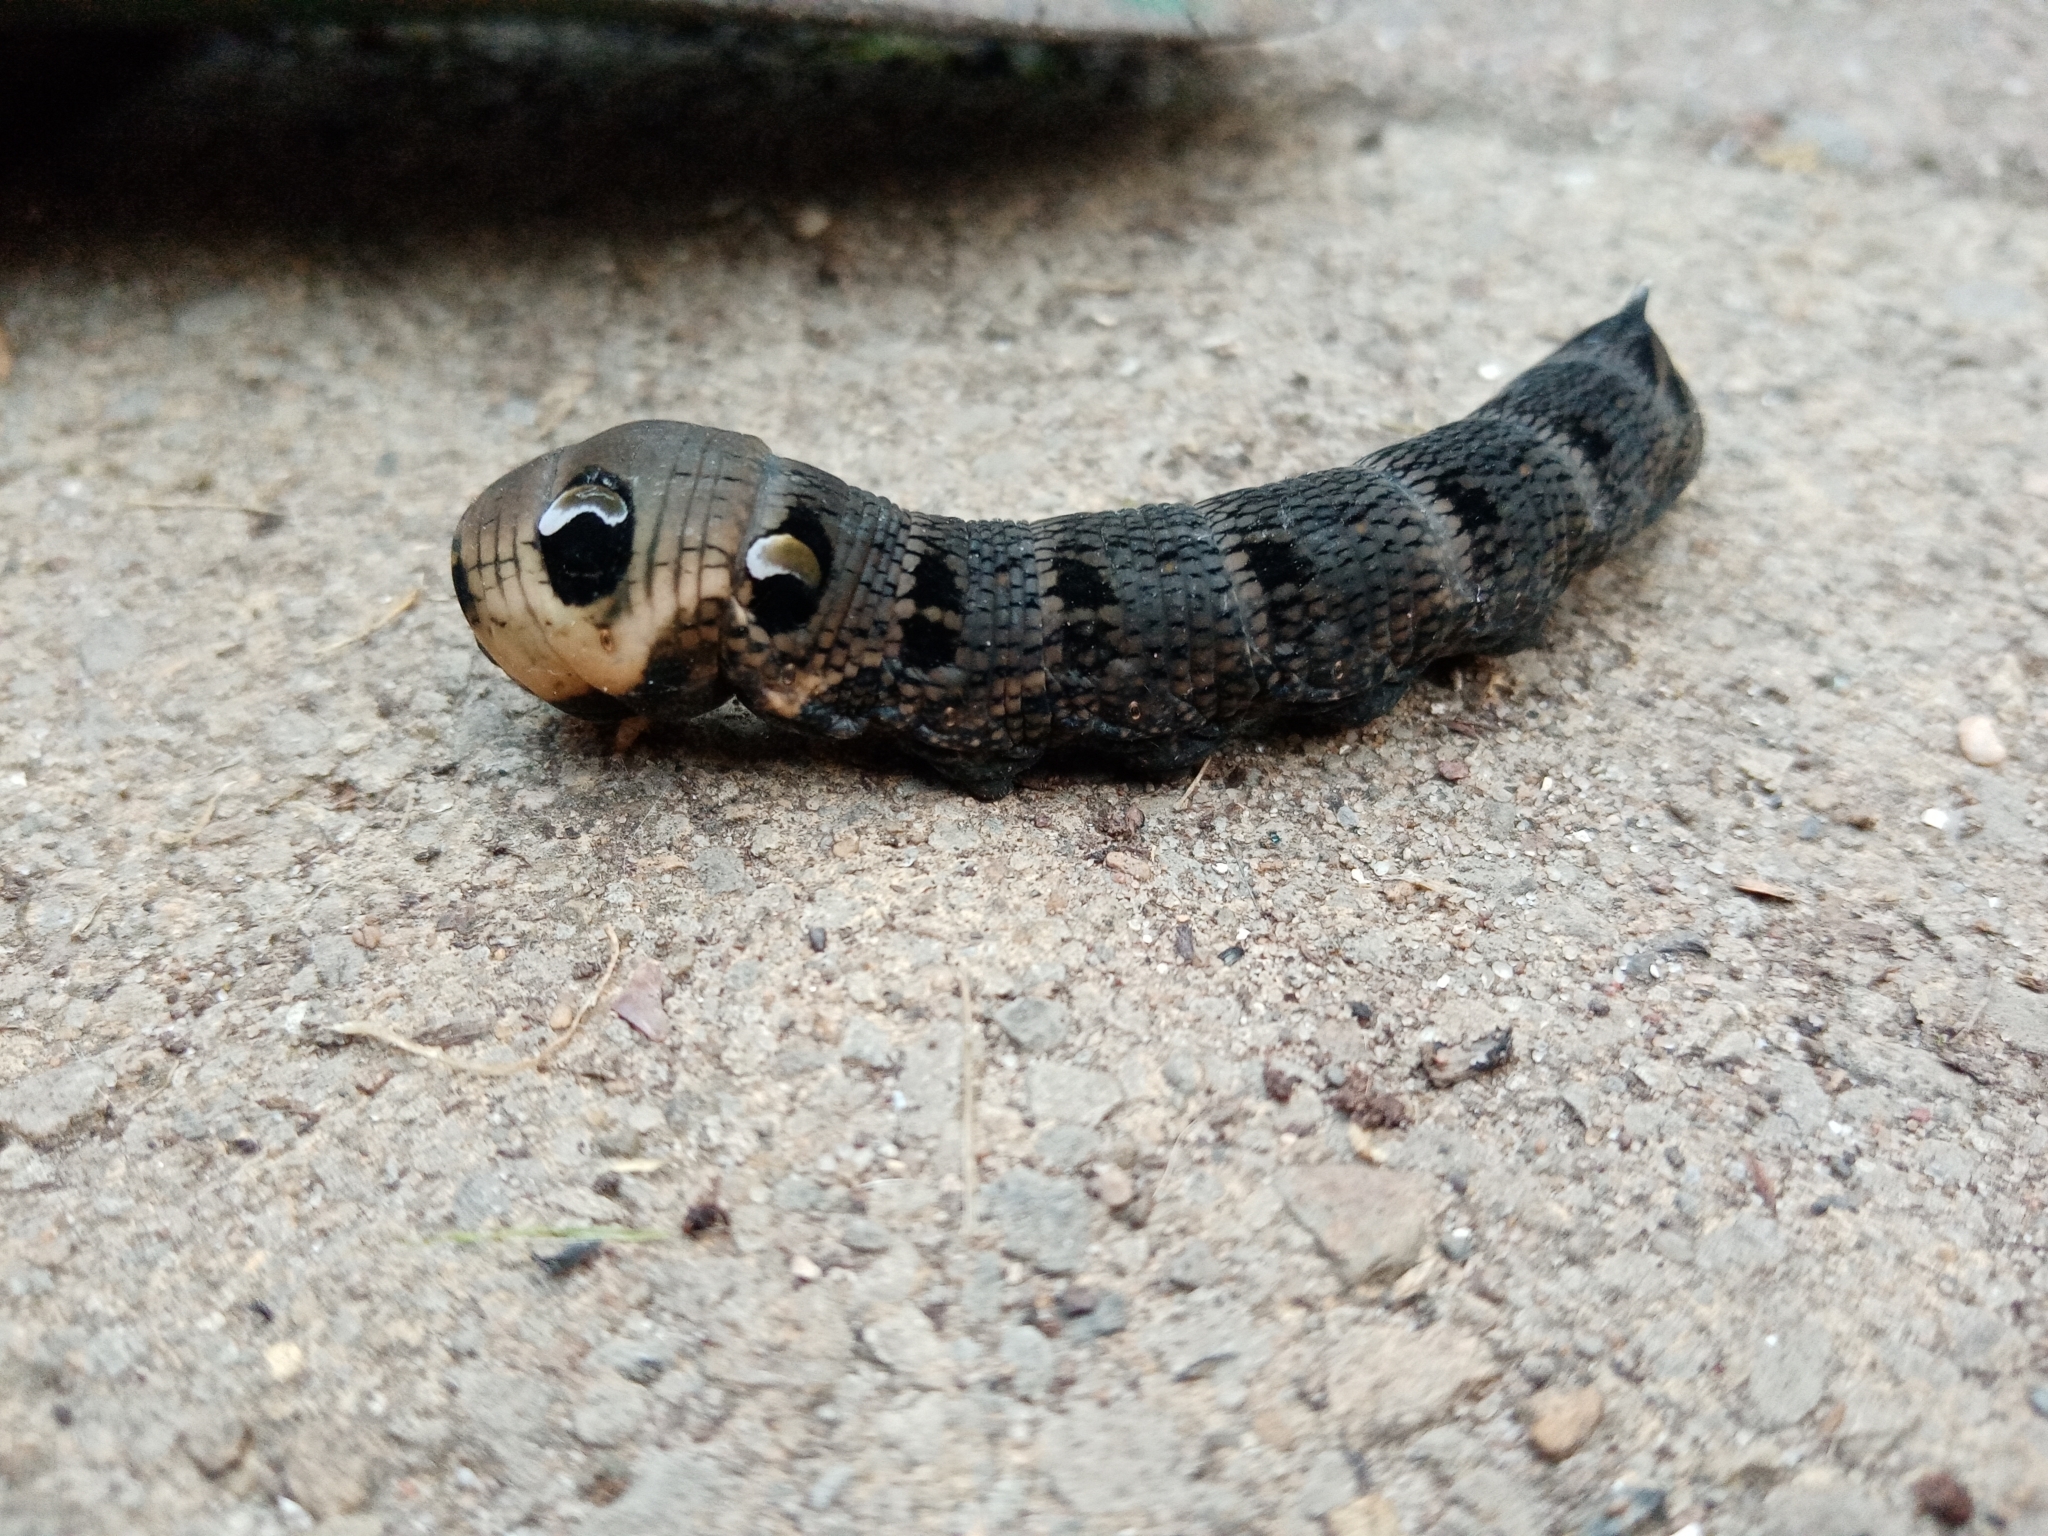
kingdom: Animalia
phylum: Arthropoda
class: Insecta
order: Lepidoptera
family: Sphingidae
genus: Deilephila
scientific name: Deilephila elpenor
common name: Elephant hawk-moth
